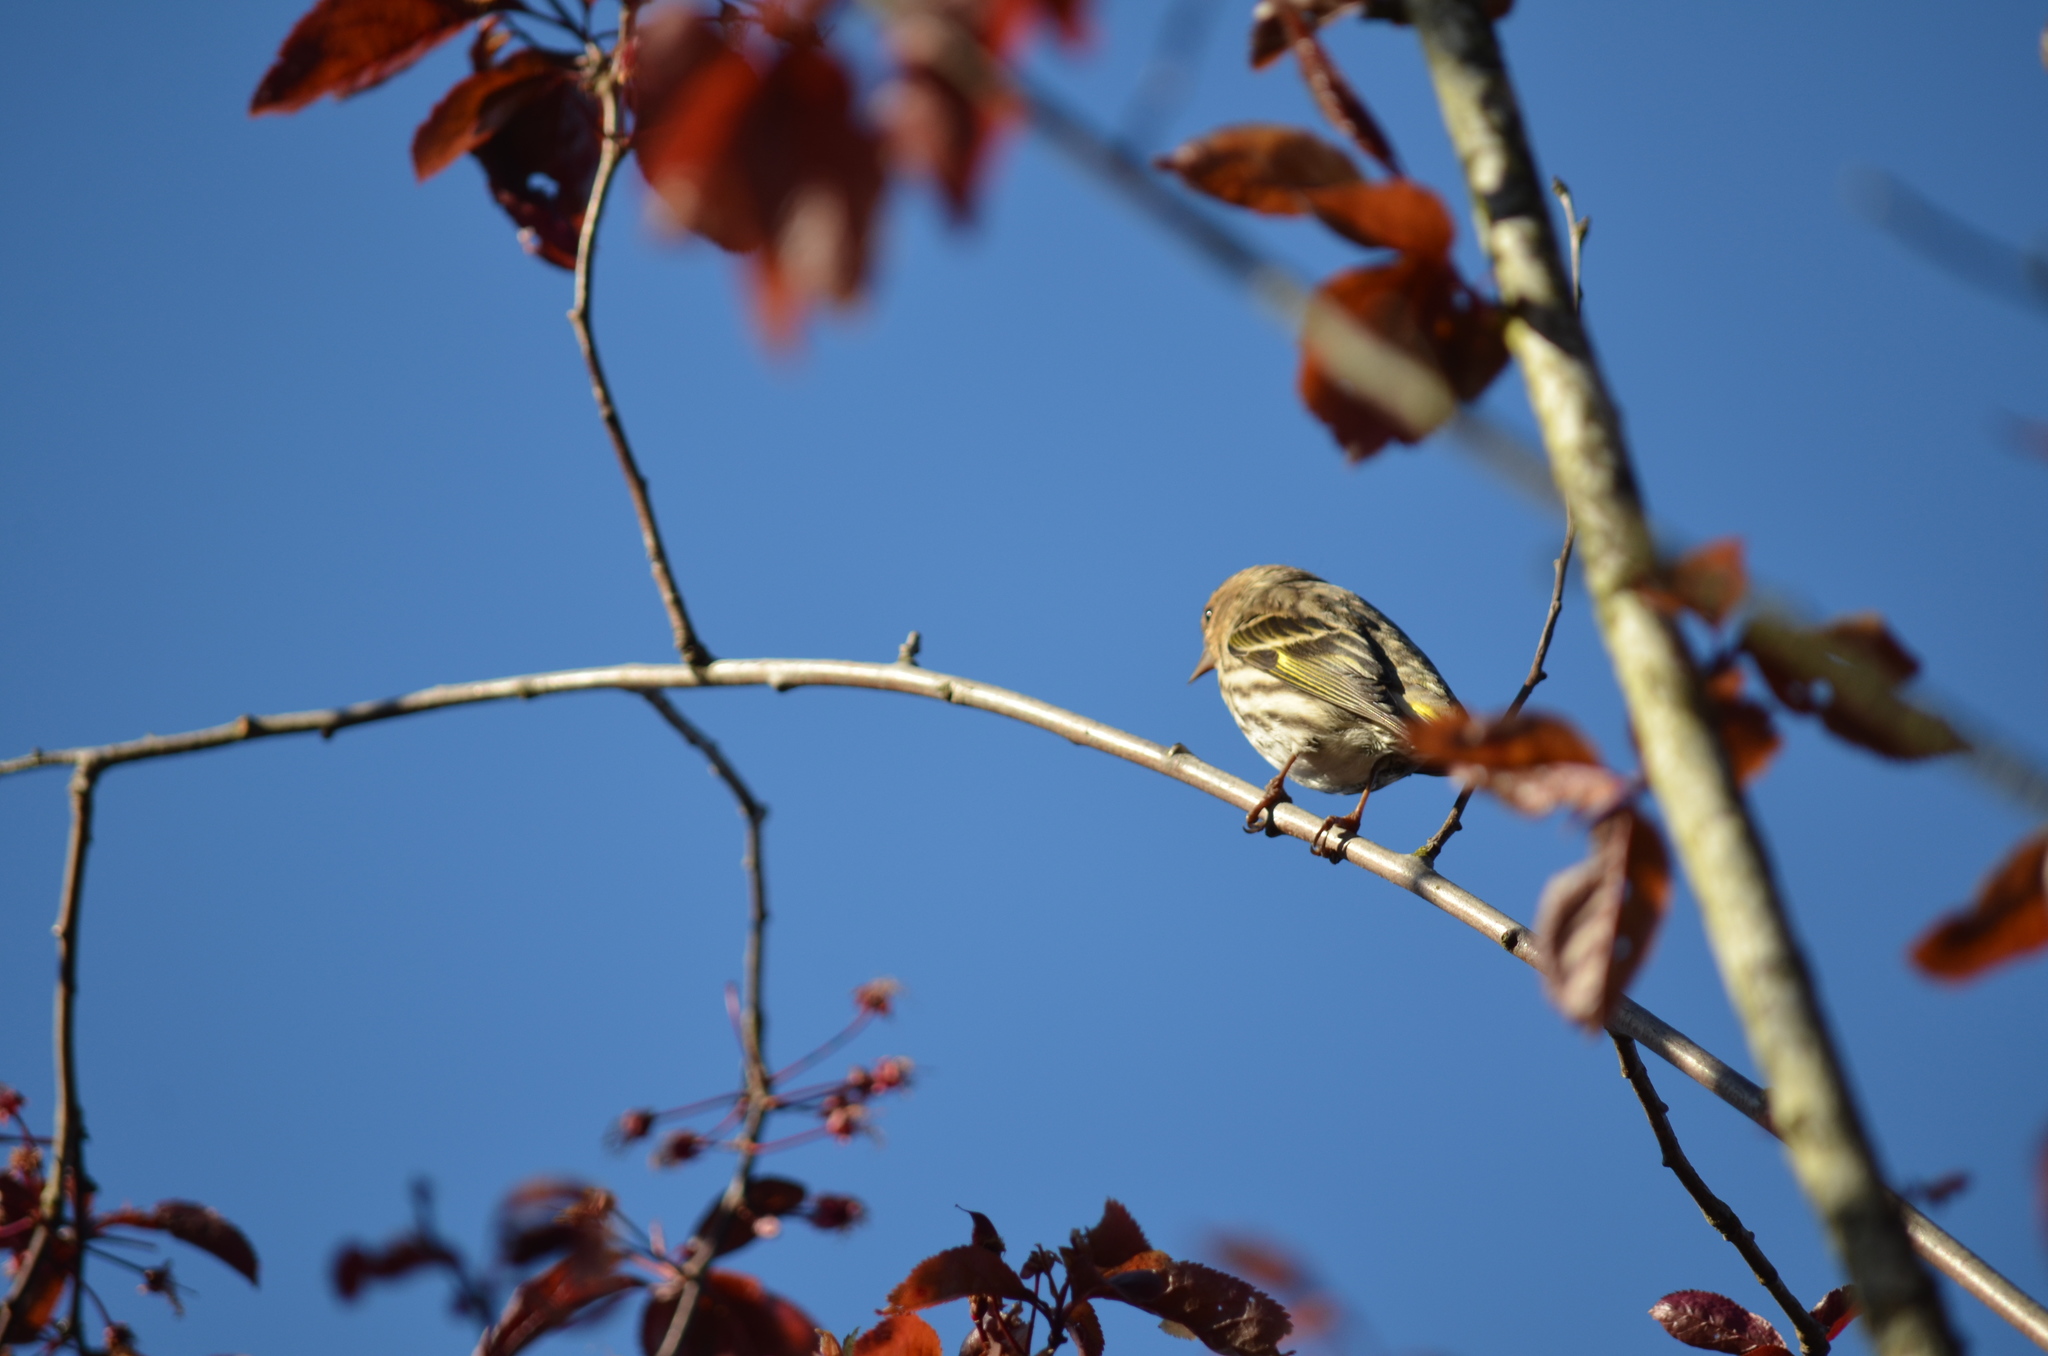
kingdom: Animalia
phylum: Chordata
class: Aves
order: Passeriformes
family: Fringillidae
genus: Spinus
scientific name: Spinus pinus
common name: Pine siskin
